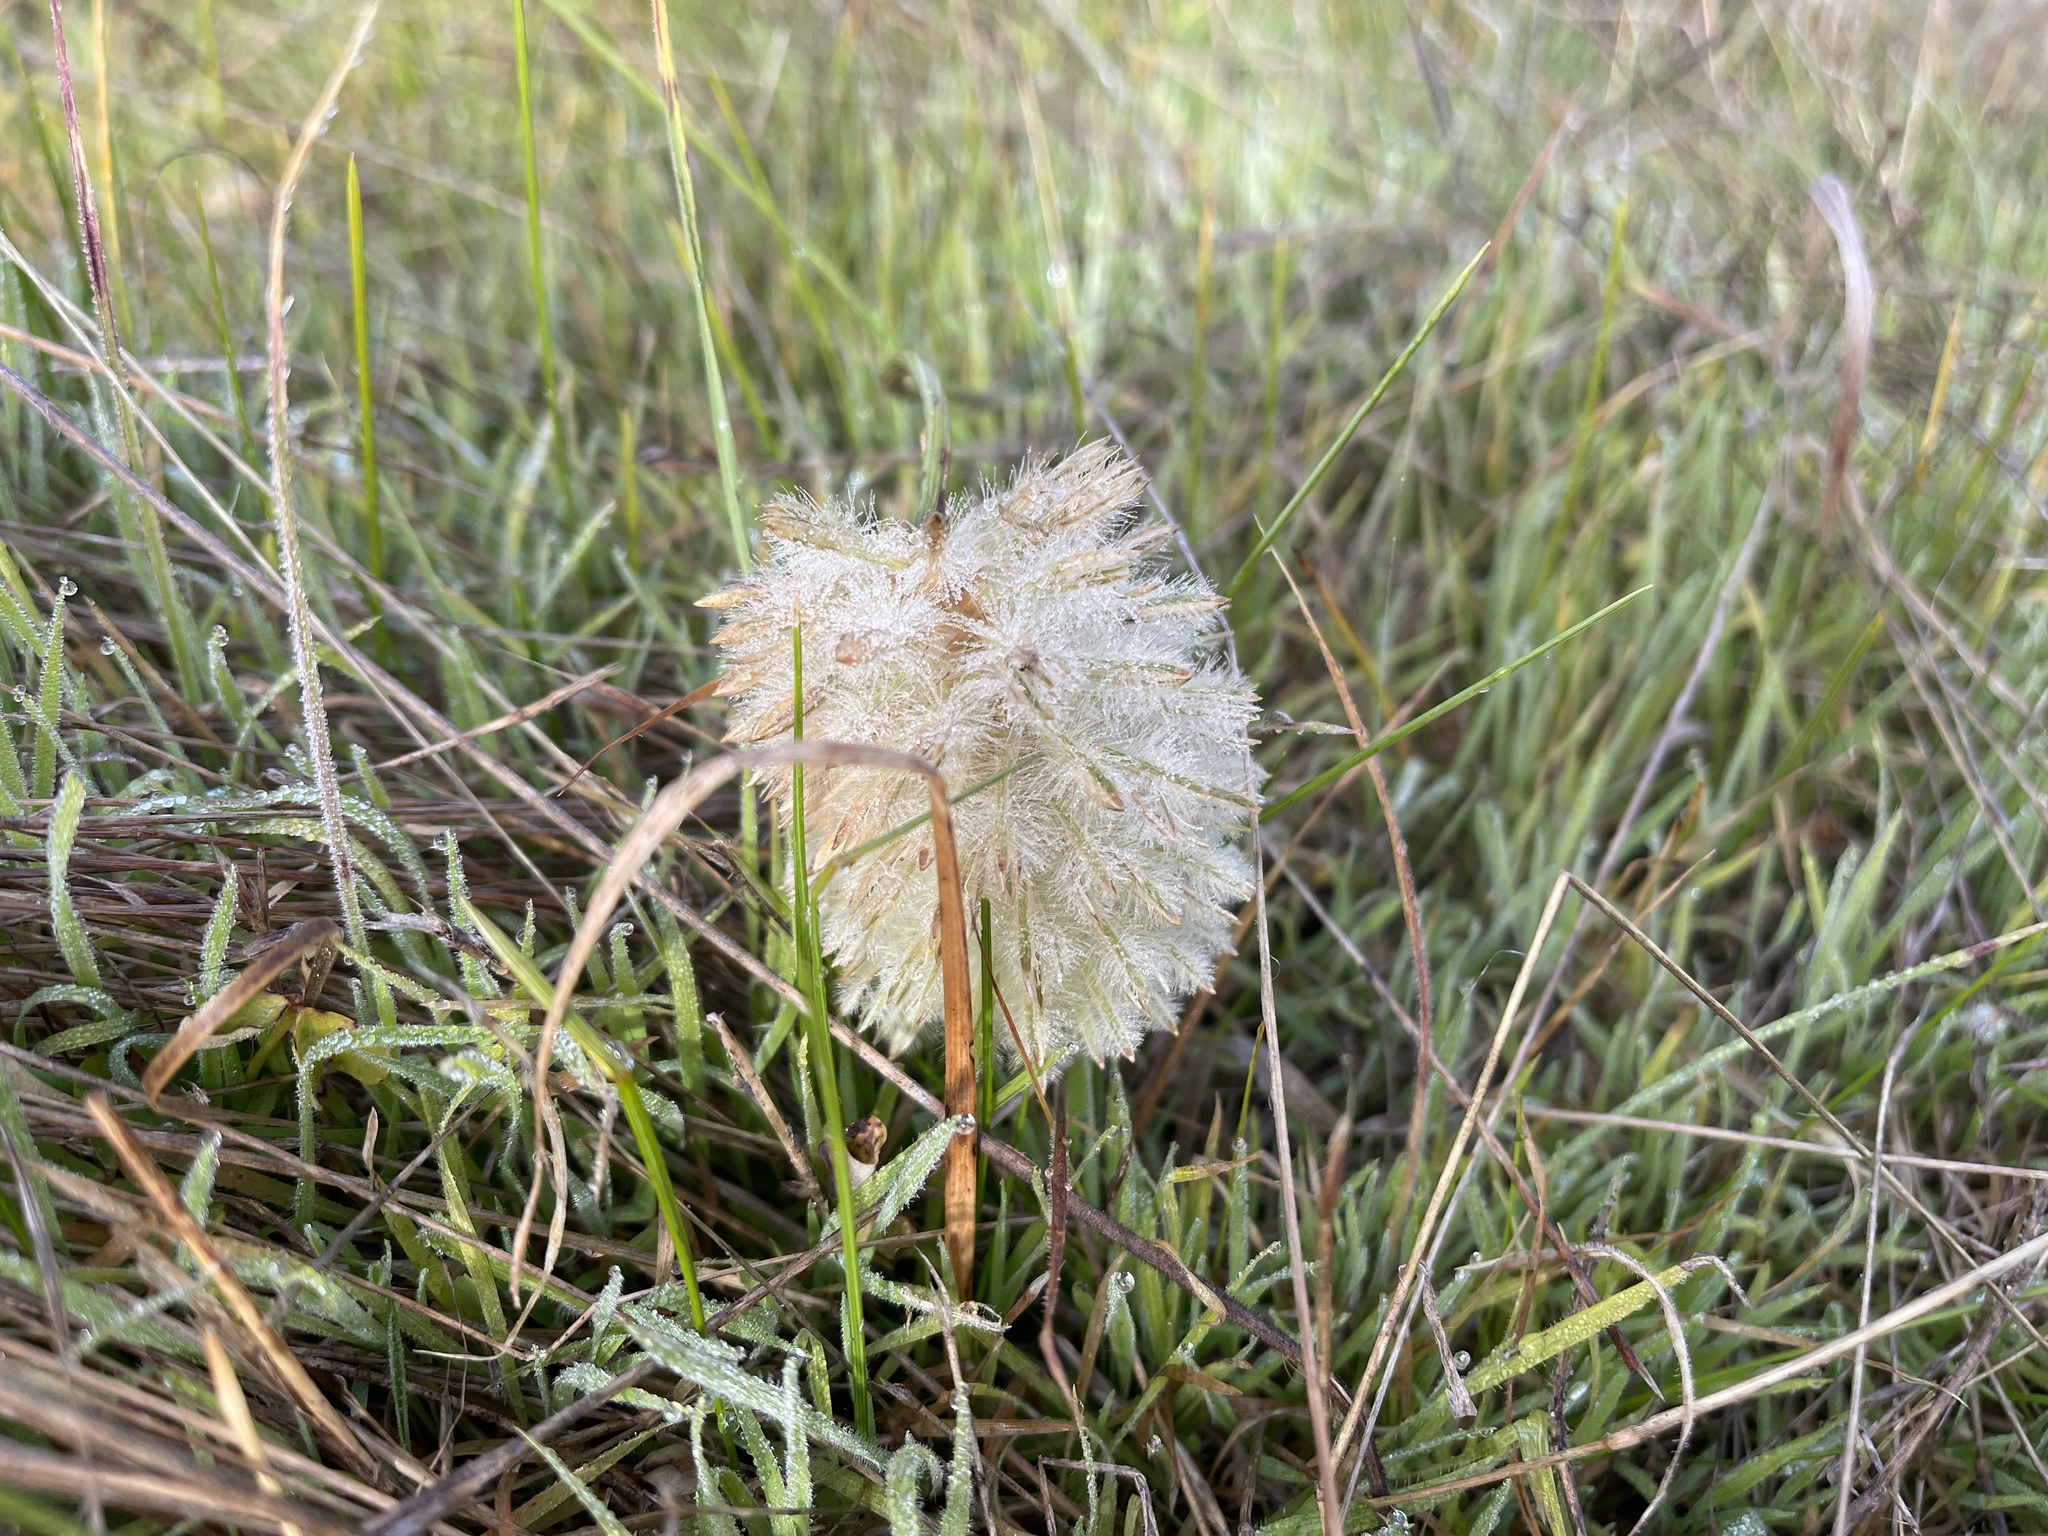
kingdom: Plantae
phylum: Tracheophyta
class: Magnoliopsida
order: Caryophyllales
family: Amaranthaceae
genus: Ptilotus
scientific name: Ptilotus macrocephalus
